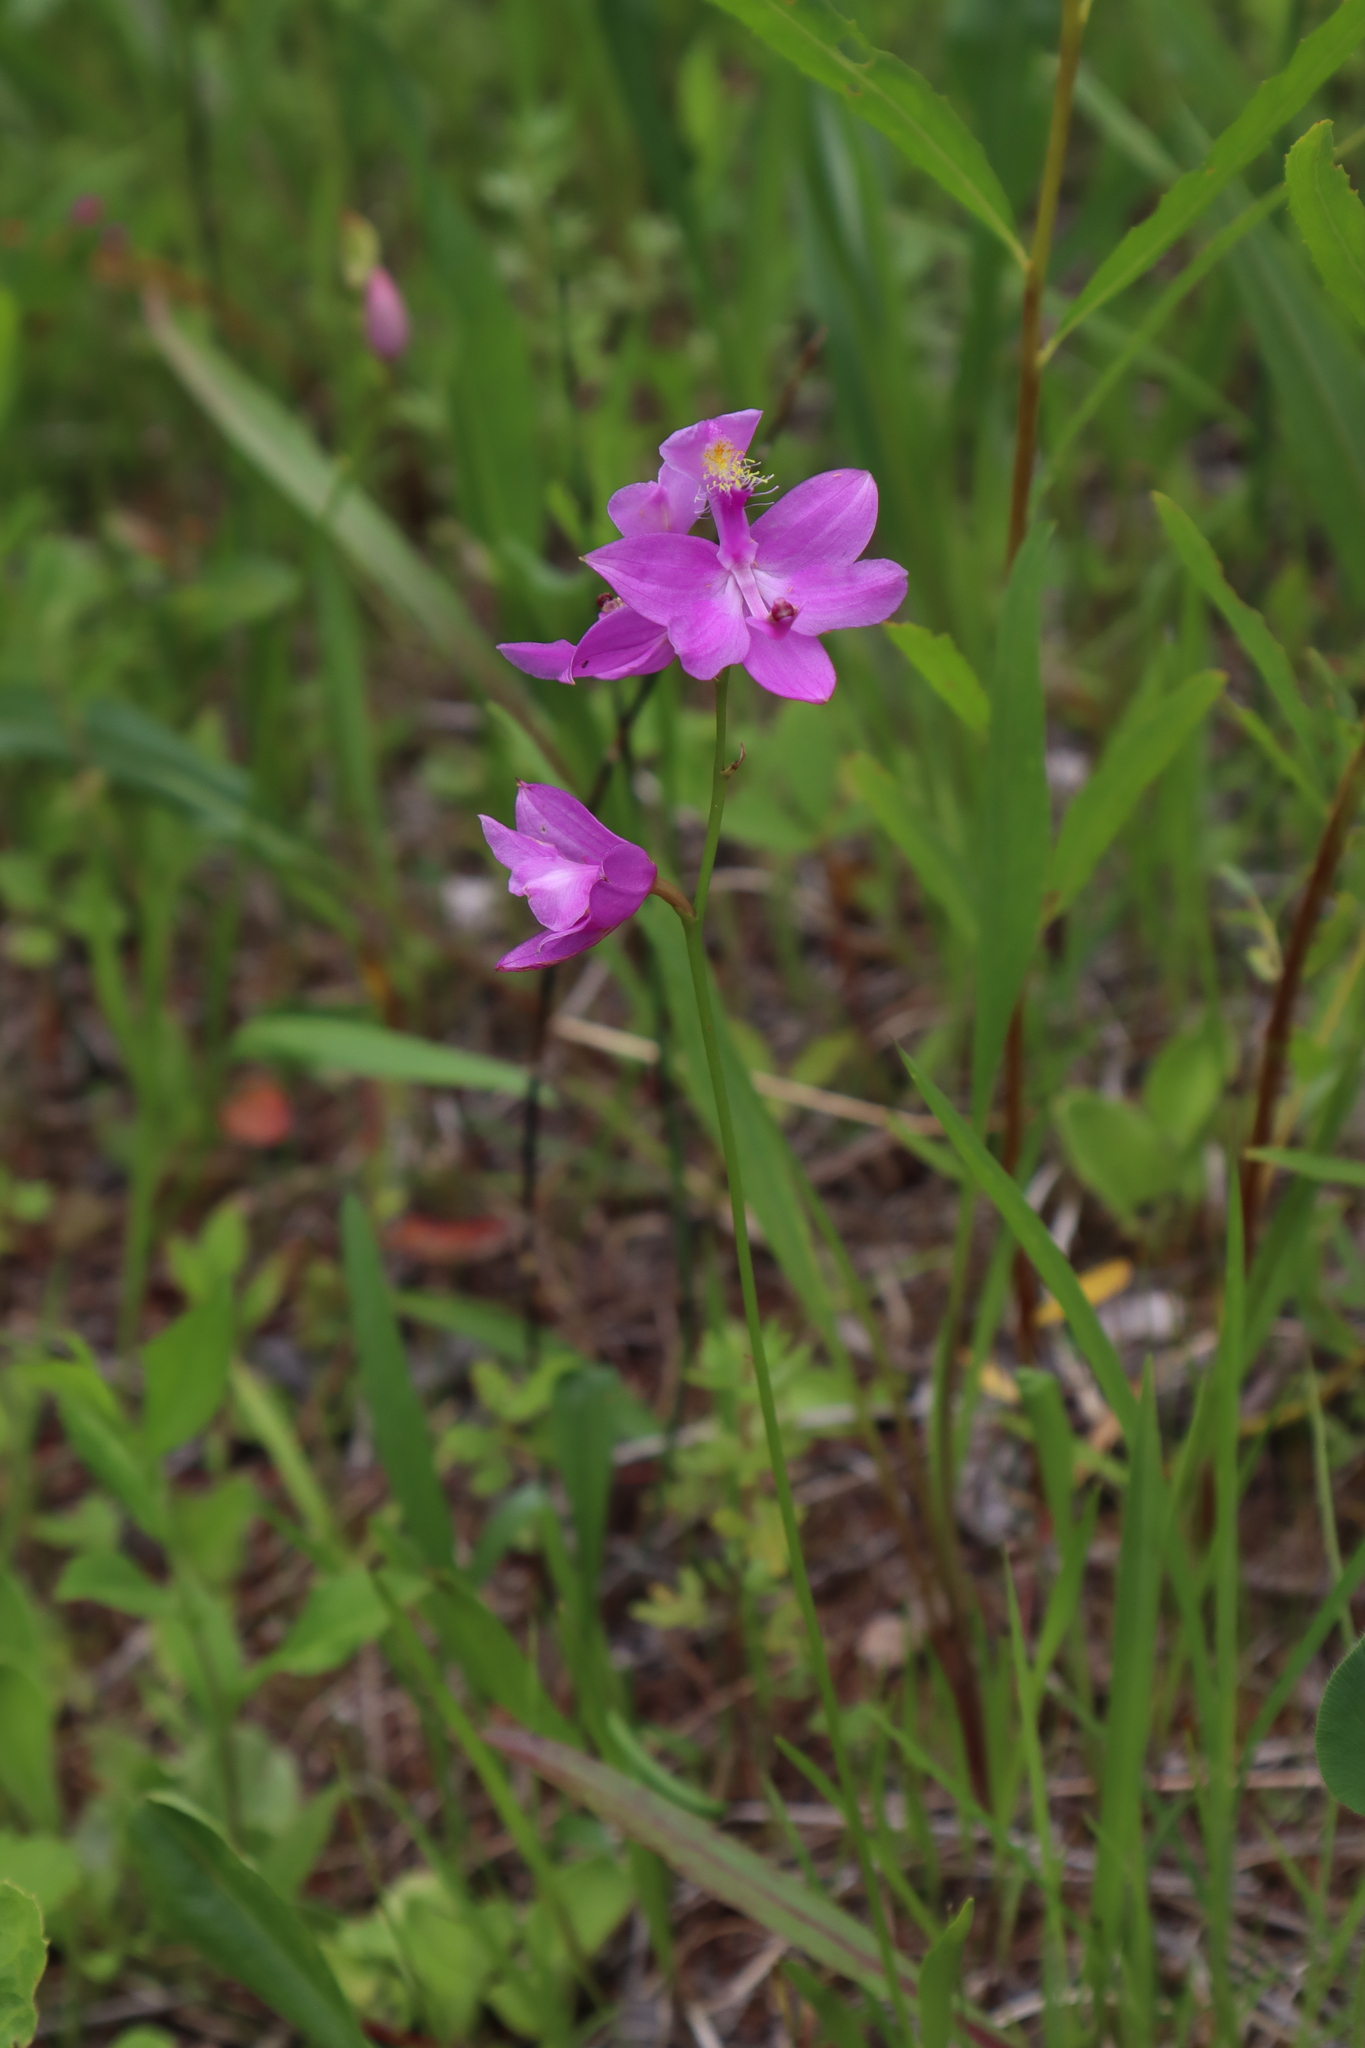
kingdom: Plantae
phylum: Tracheophyta
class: Liliopsida
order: Asparagales
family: Orchidaceae
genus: Calopogon
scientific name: Calopogon tuberosus
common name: Grass-pink
